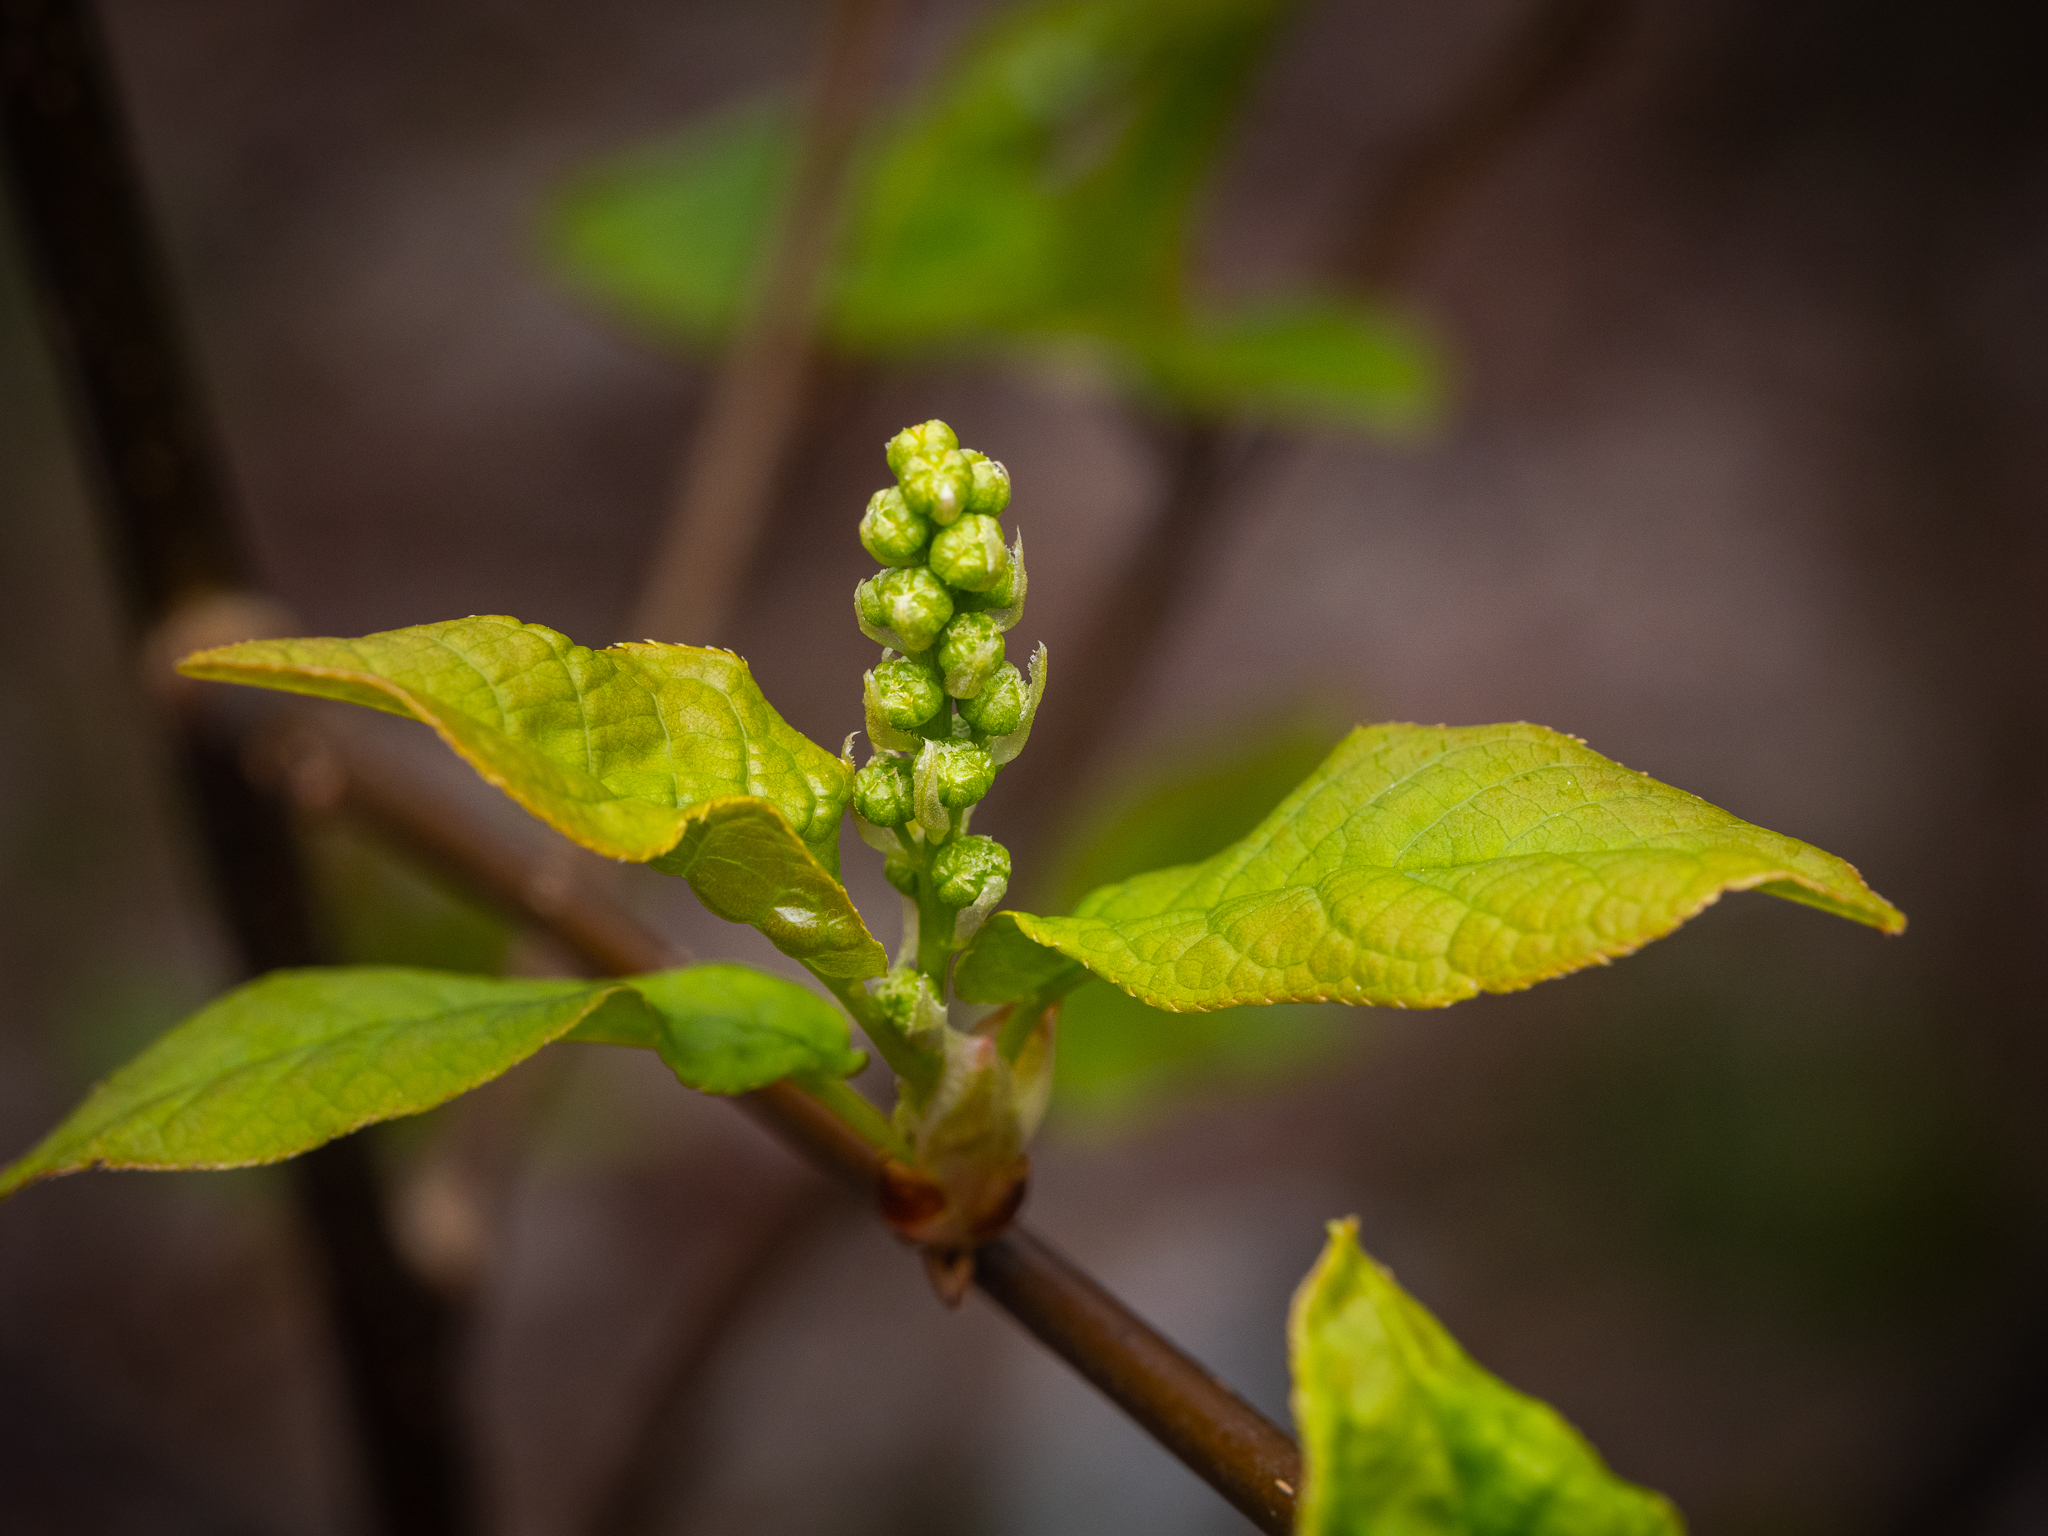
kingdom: Plantae
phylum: Tracheophyta
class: Magnoliopsida
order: Rosales
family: Rosaceae
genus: Prunus
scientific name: Prunus padus
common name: Bird cherry
